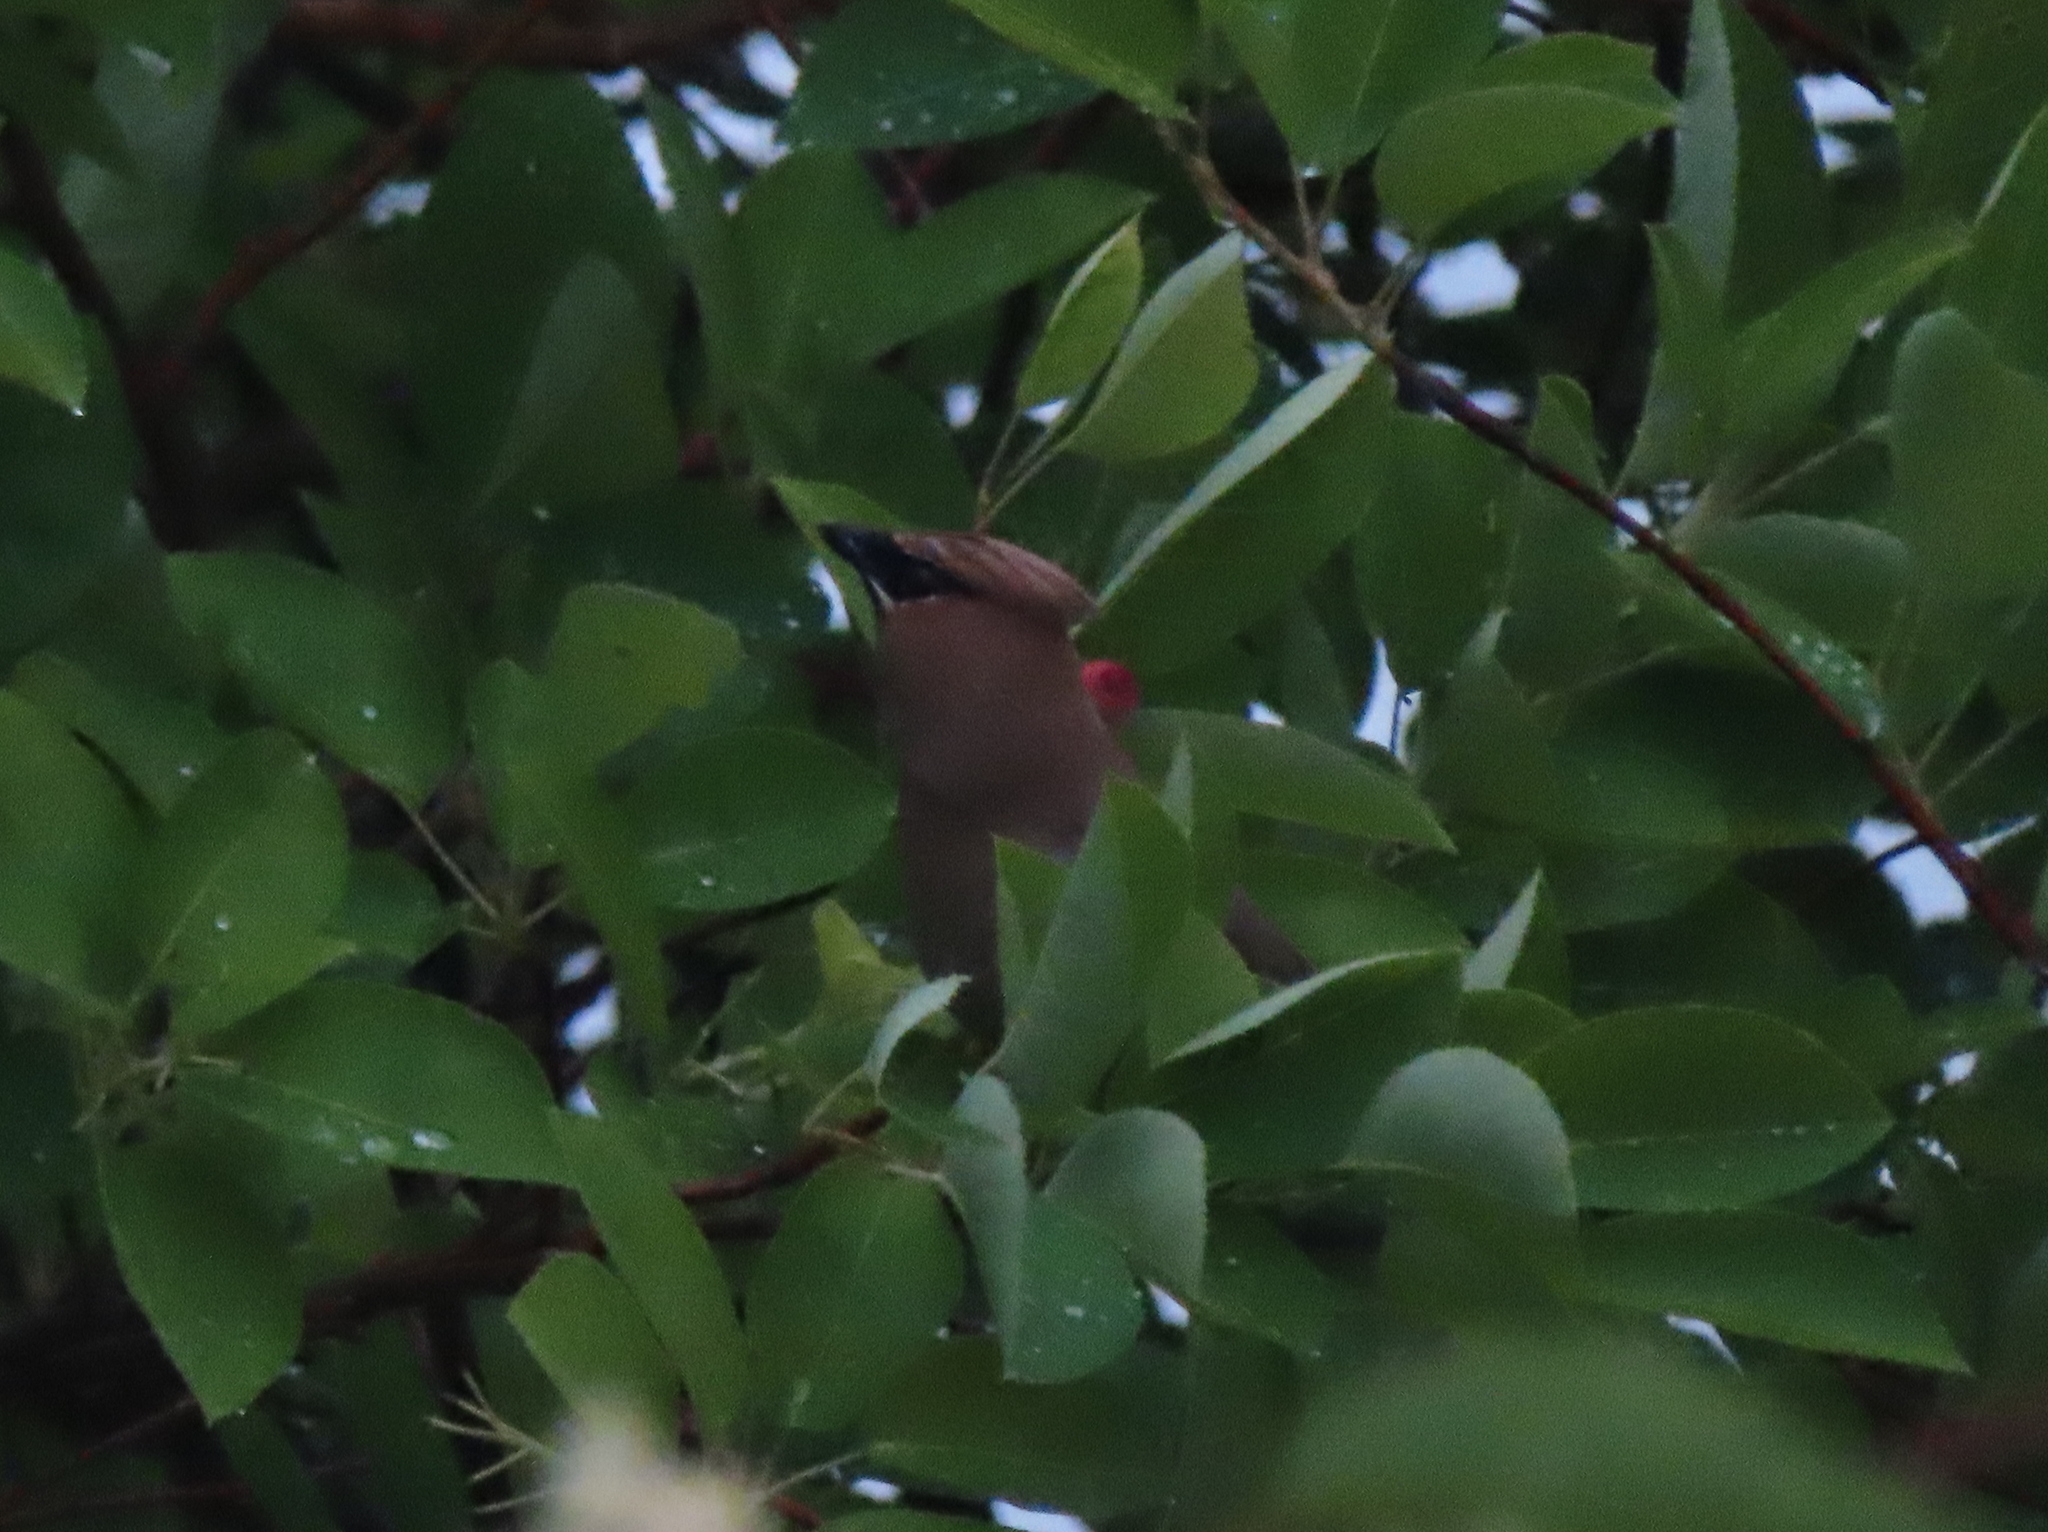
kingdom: Animalia
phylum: Chordata
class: Aves
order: Passeriformes
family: Bombycillidae
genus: Bombycilla
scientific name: Bombycilla cedrorum
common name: Cedar waxwing
